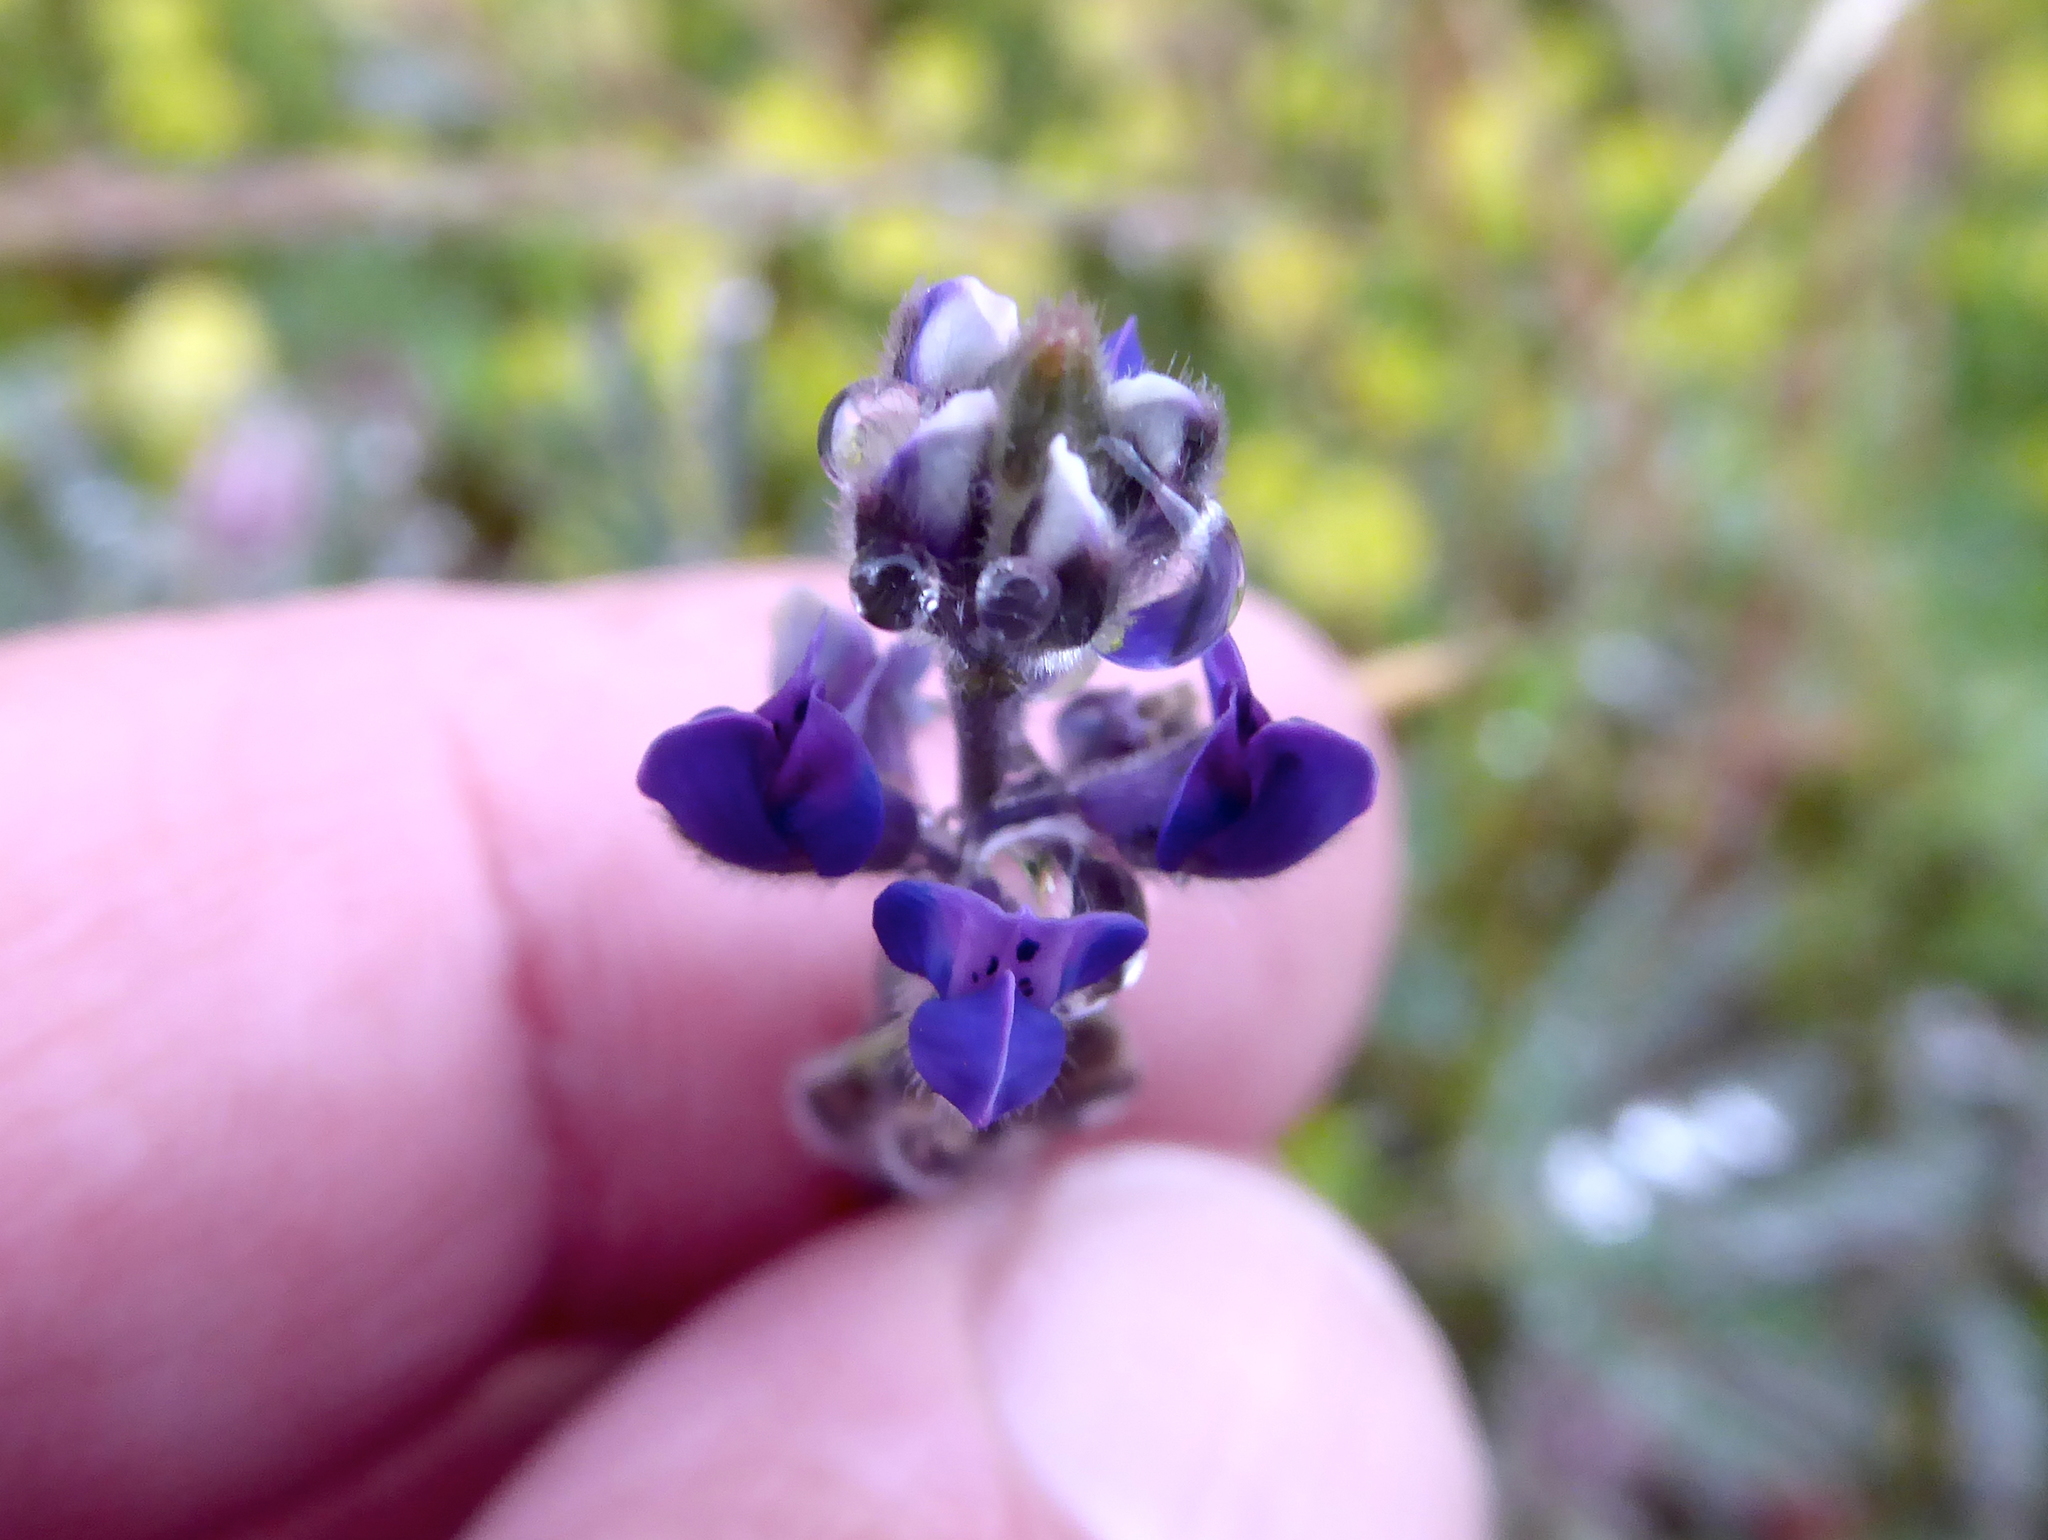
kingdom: Plantae
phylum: Tracheophyta
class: Magnoliopsida
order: Fabales
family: Fabaceae
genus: Lupinus
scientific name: Lupinus bicolor
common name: Miniature lupine
